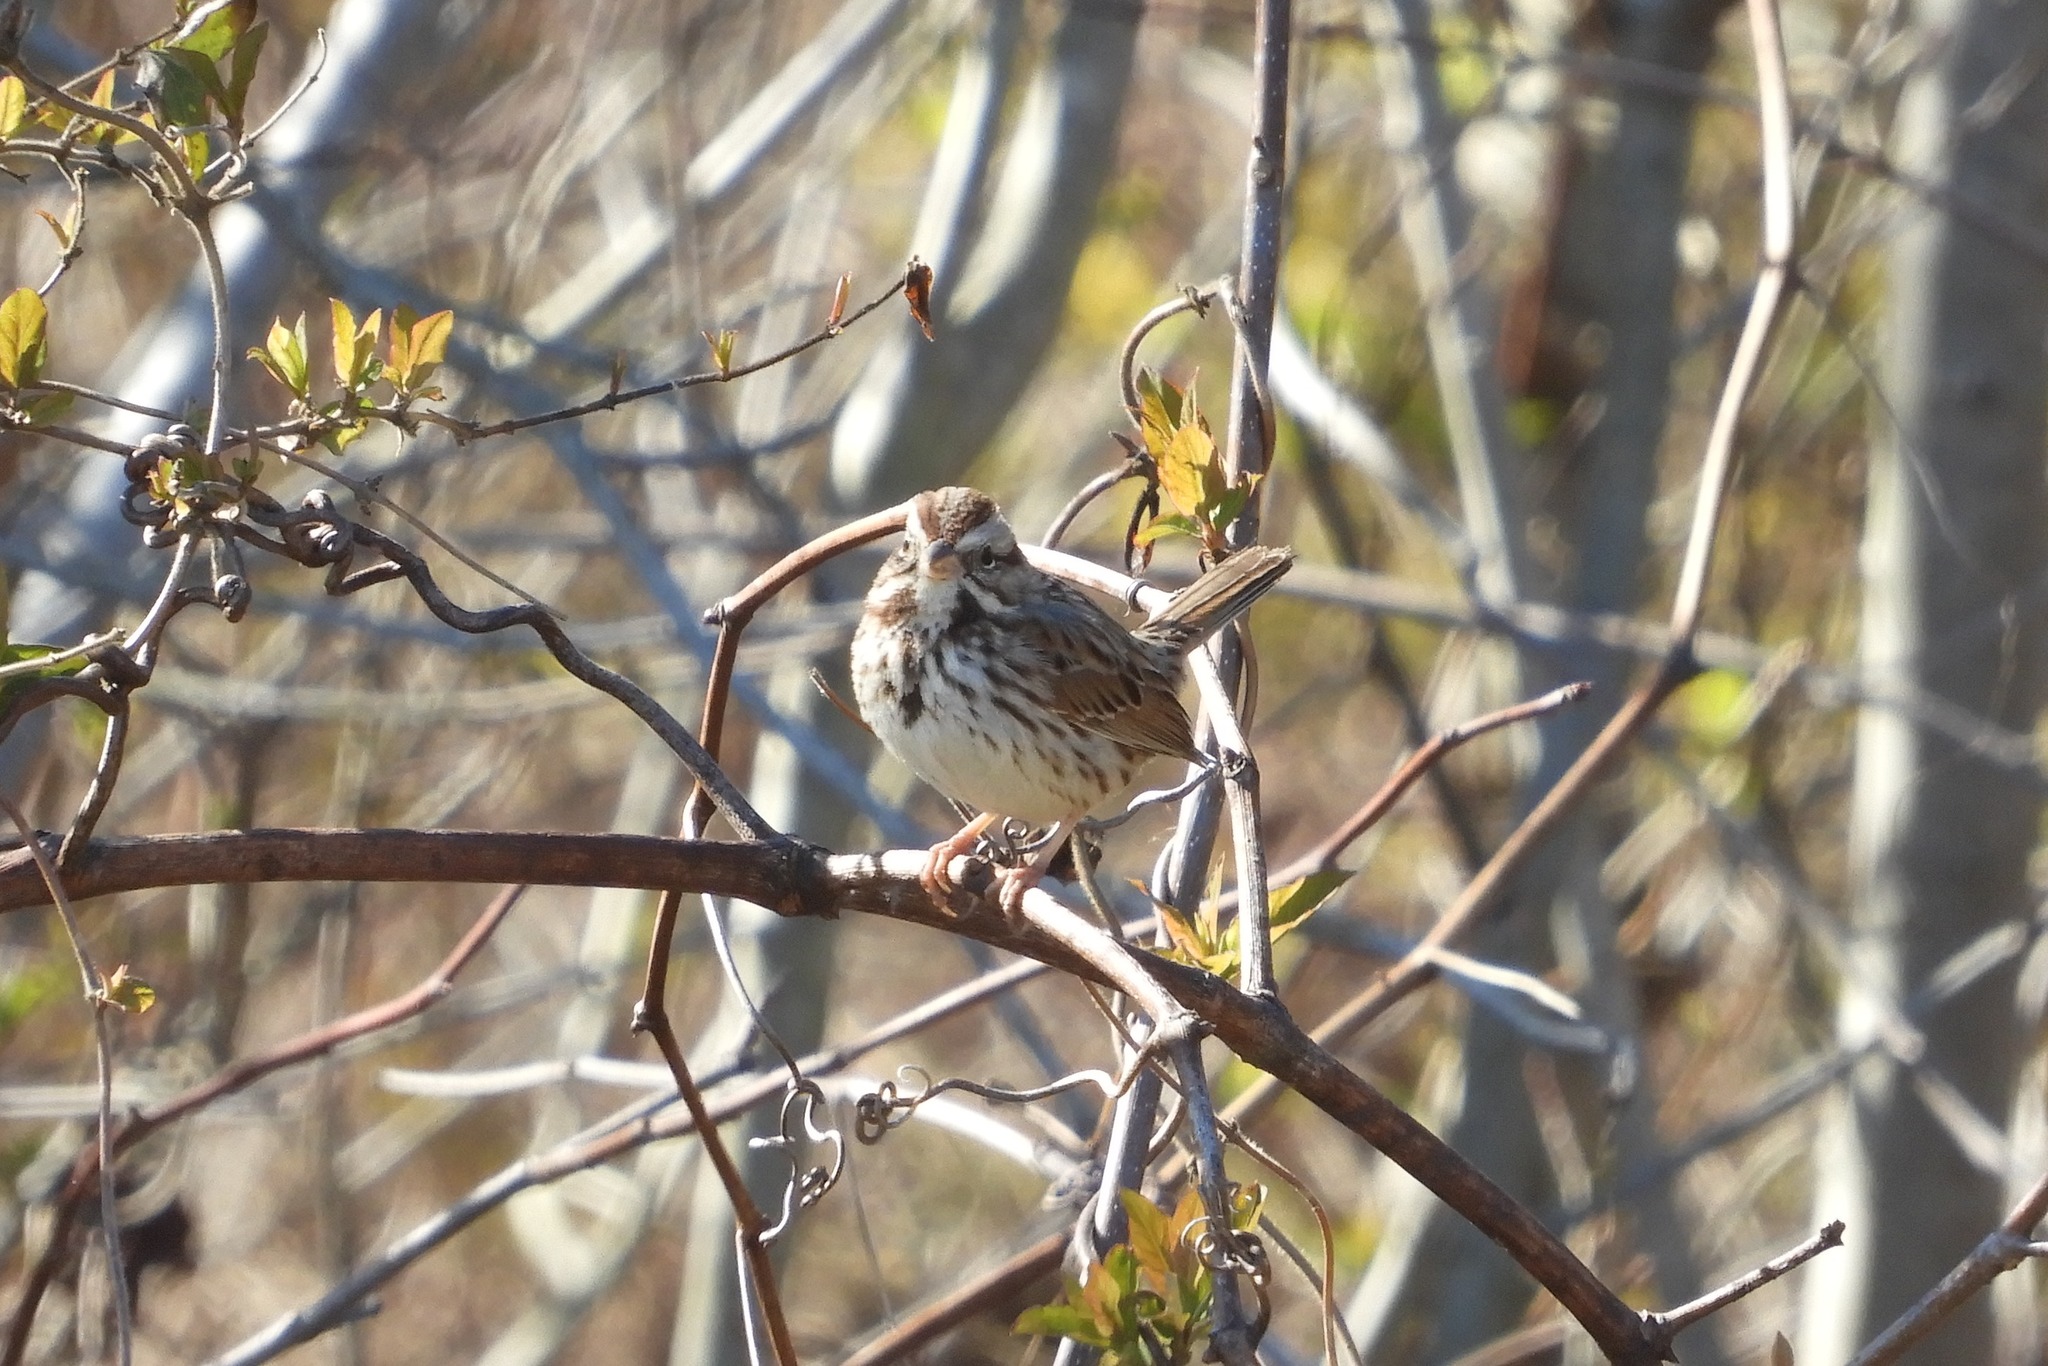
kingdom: Animalia
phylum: Chordata
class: Aves
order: Passeriformes
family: Passerellidae
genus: Melospiza
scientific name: Melospiza melodia
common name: Song sparrow
